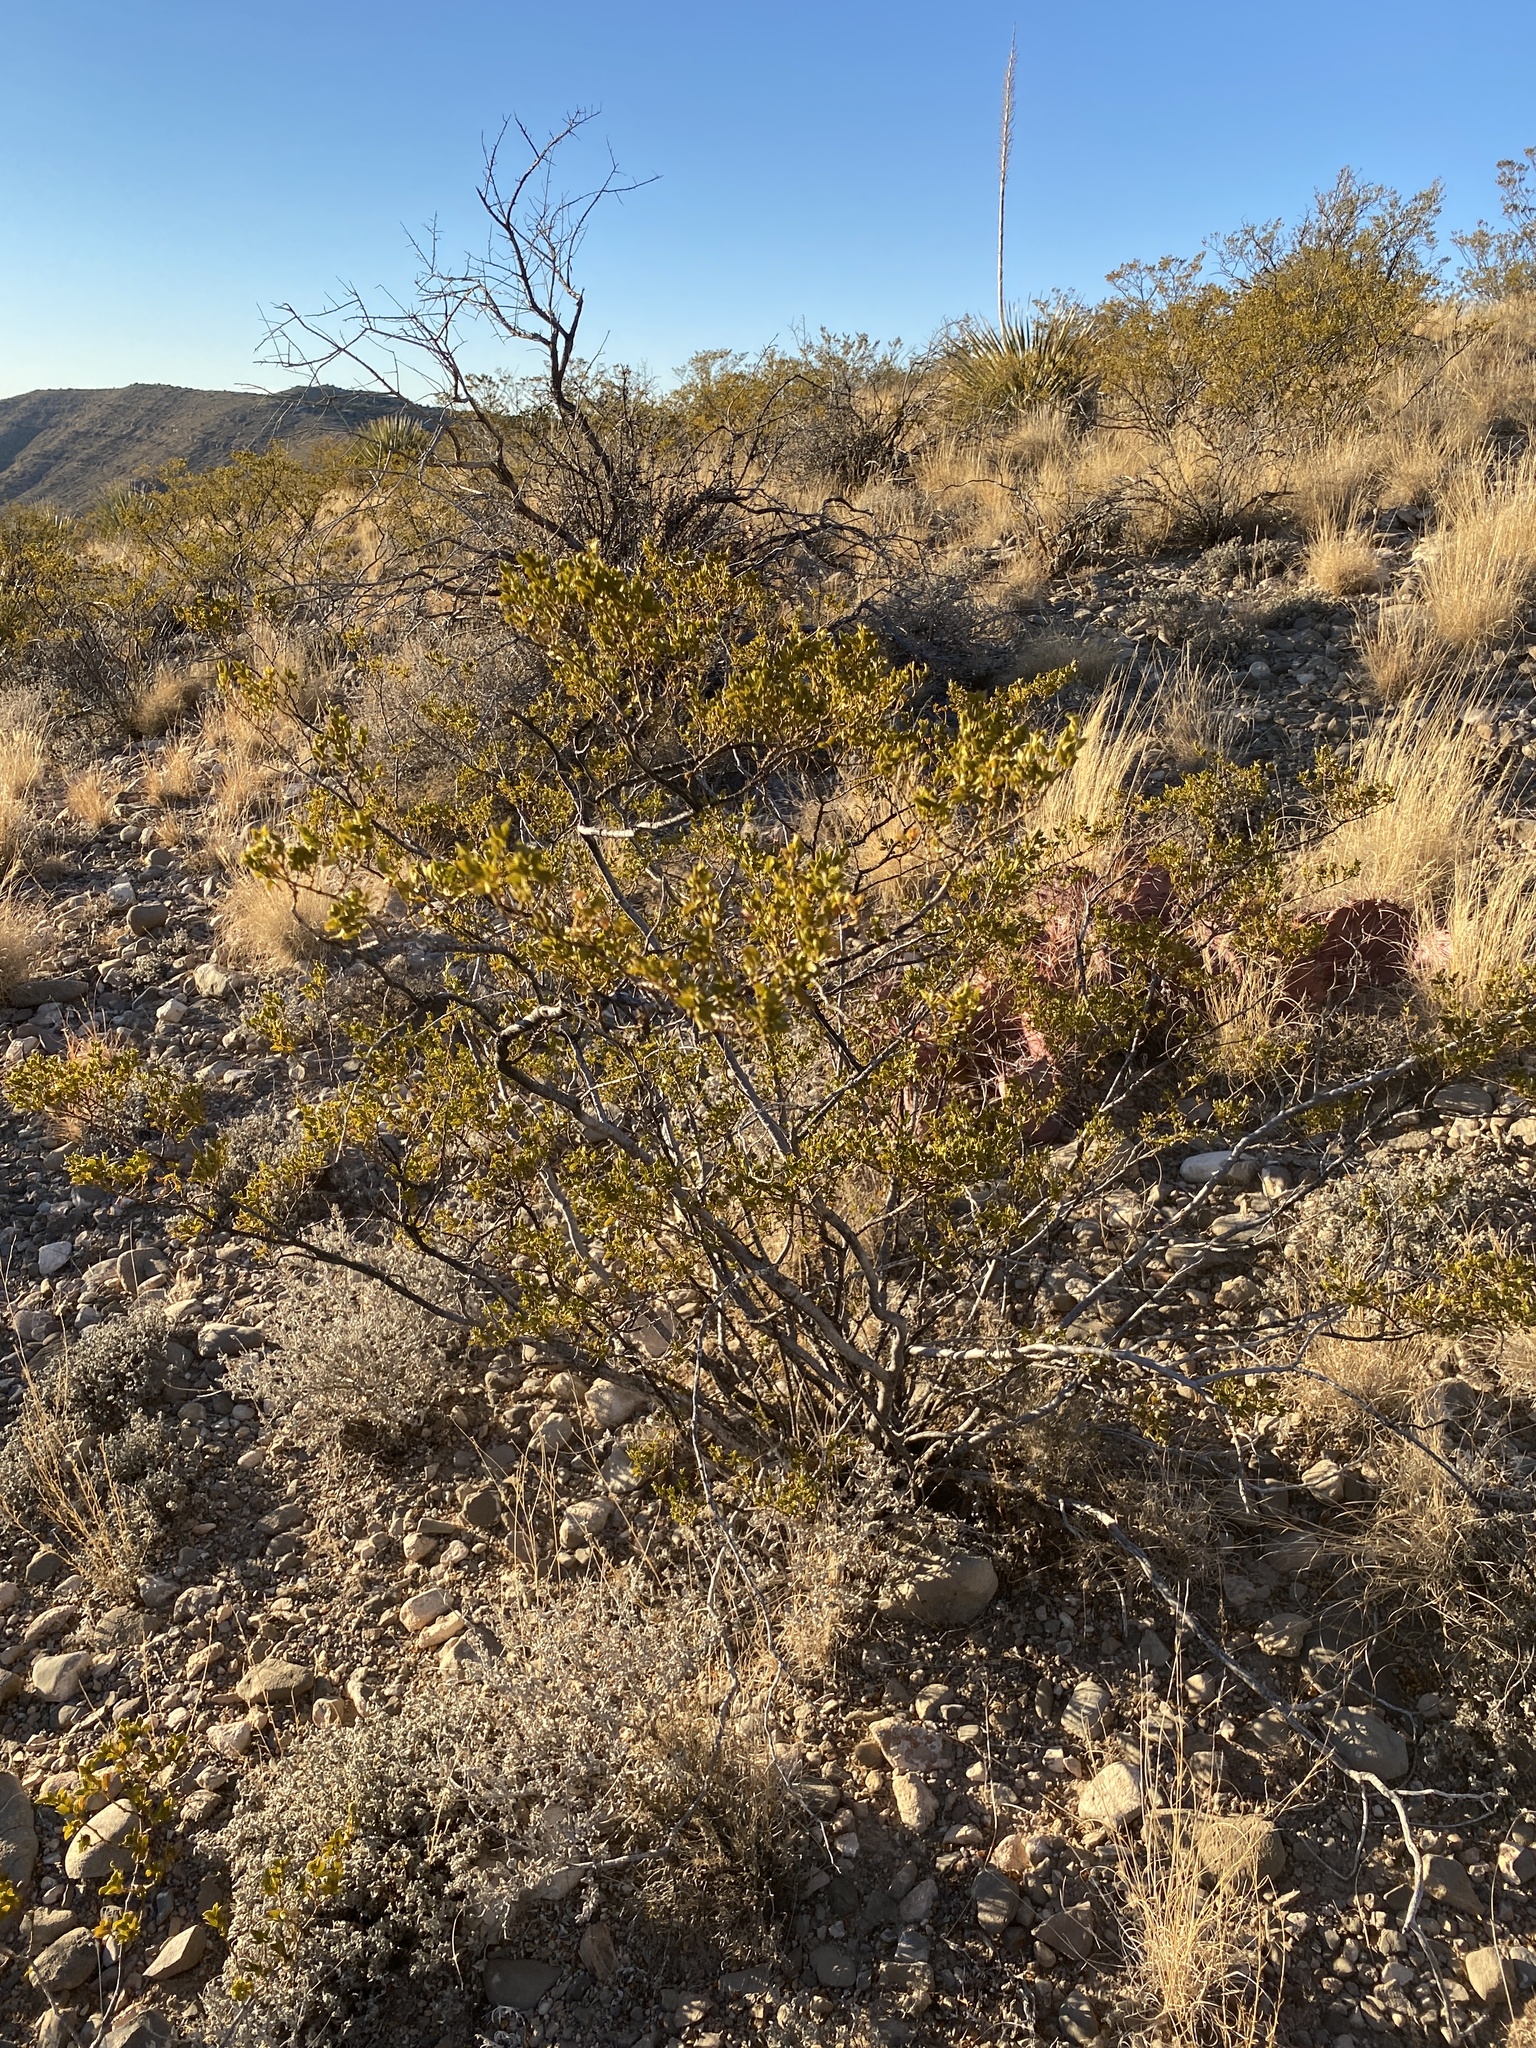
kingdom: Plantae
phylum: Tracheophyta
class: Magnoliopsida
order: Zygophyllales
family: Zygophyllaceae
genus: Larrea
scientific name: Larrea tridentata
